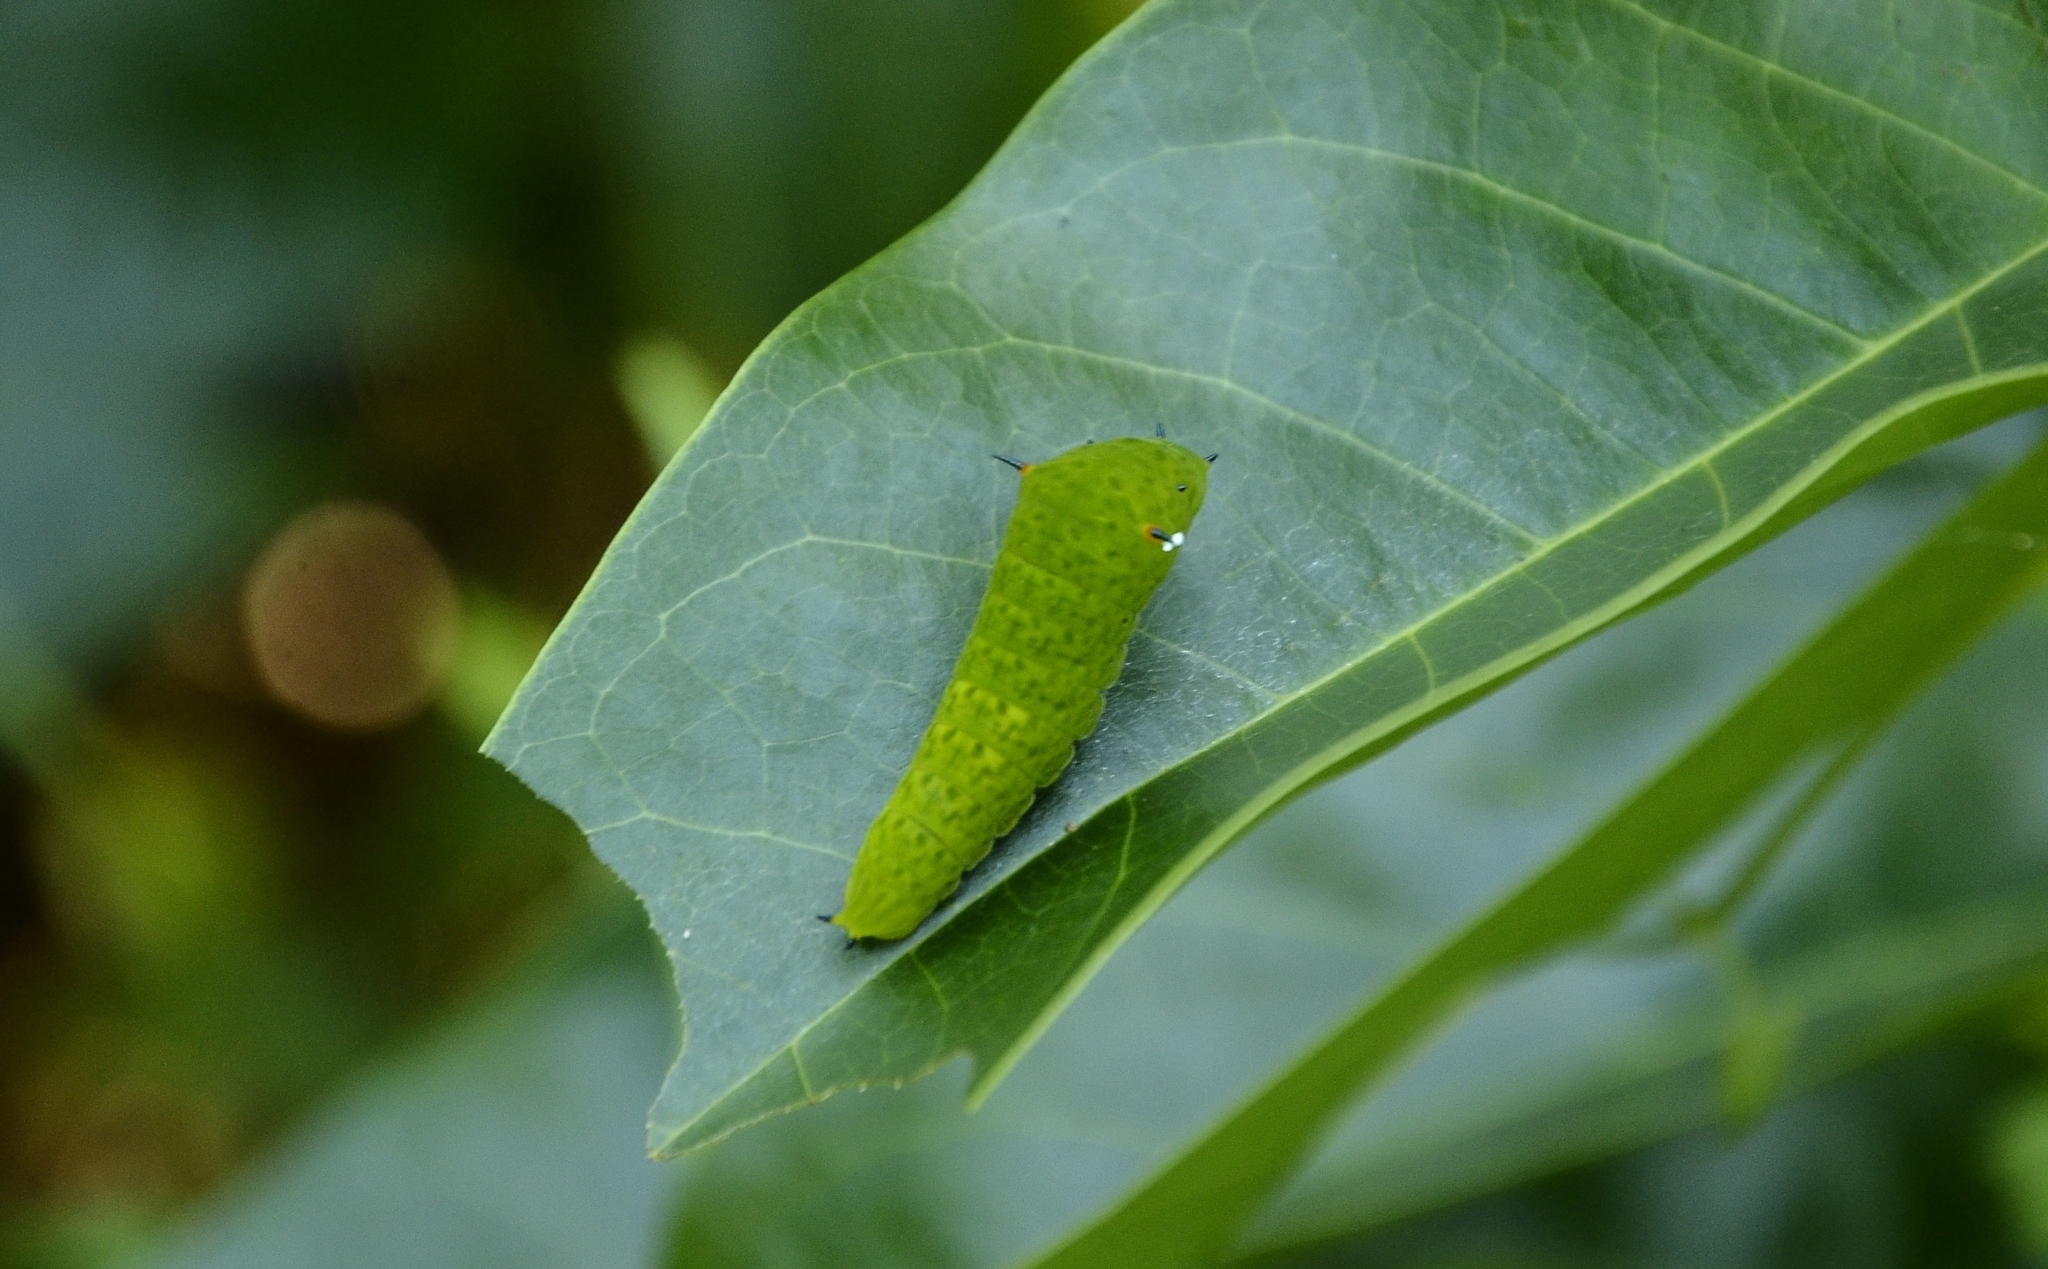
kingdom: Animalia
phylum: Arthropoda
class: Insecta
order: Lepidoptera
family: Papilionidae
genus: Graphium
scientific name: Graphium agamemnon
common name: Tailed jay
